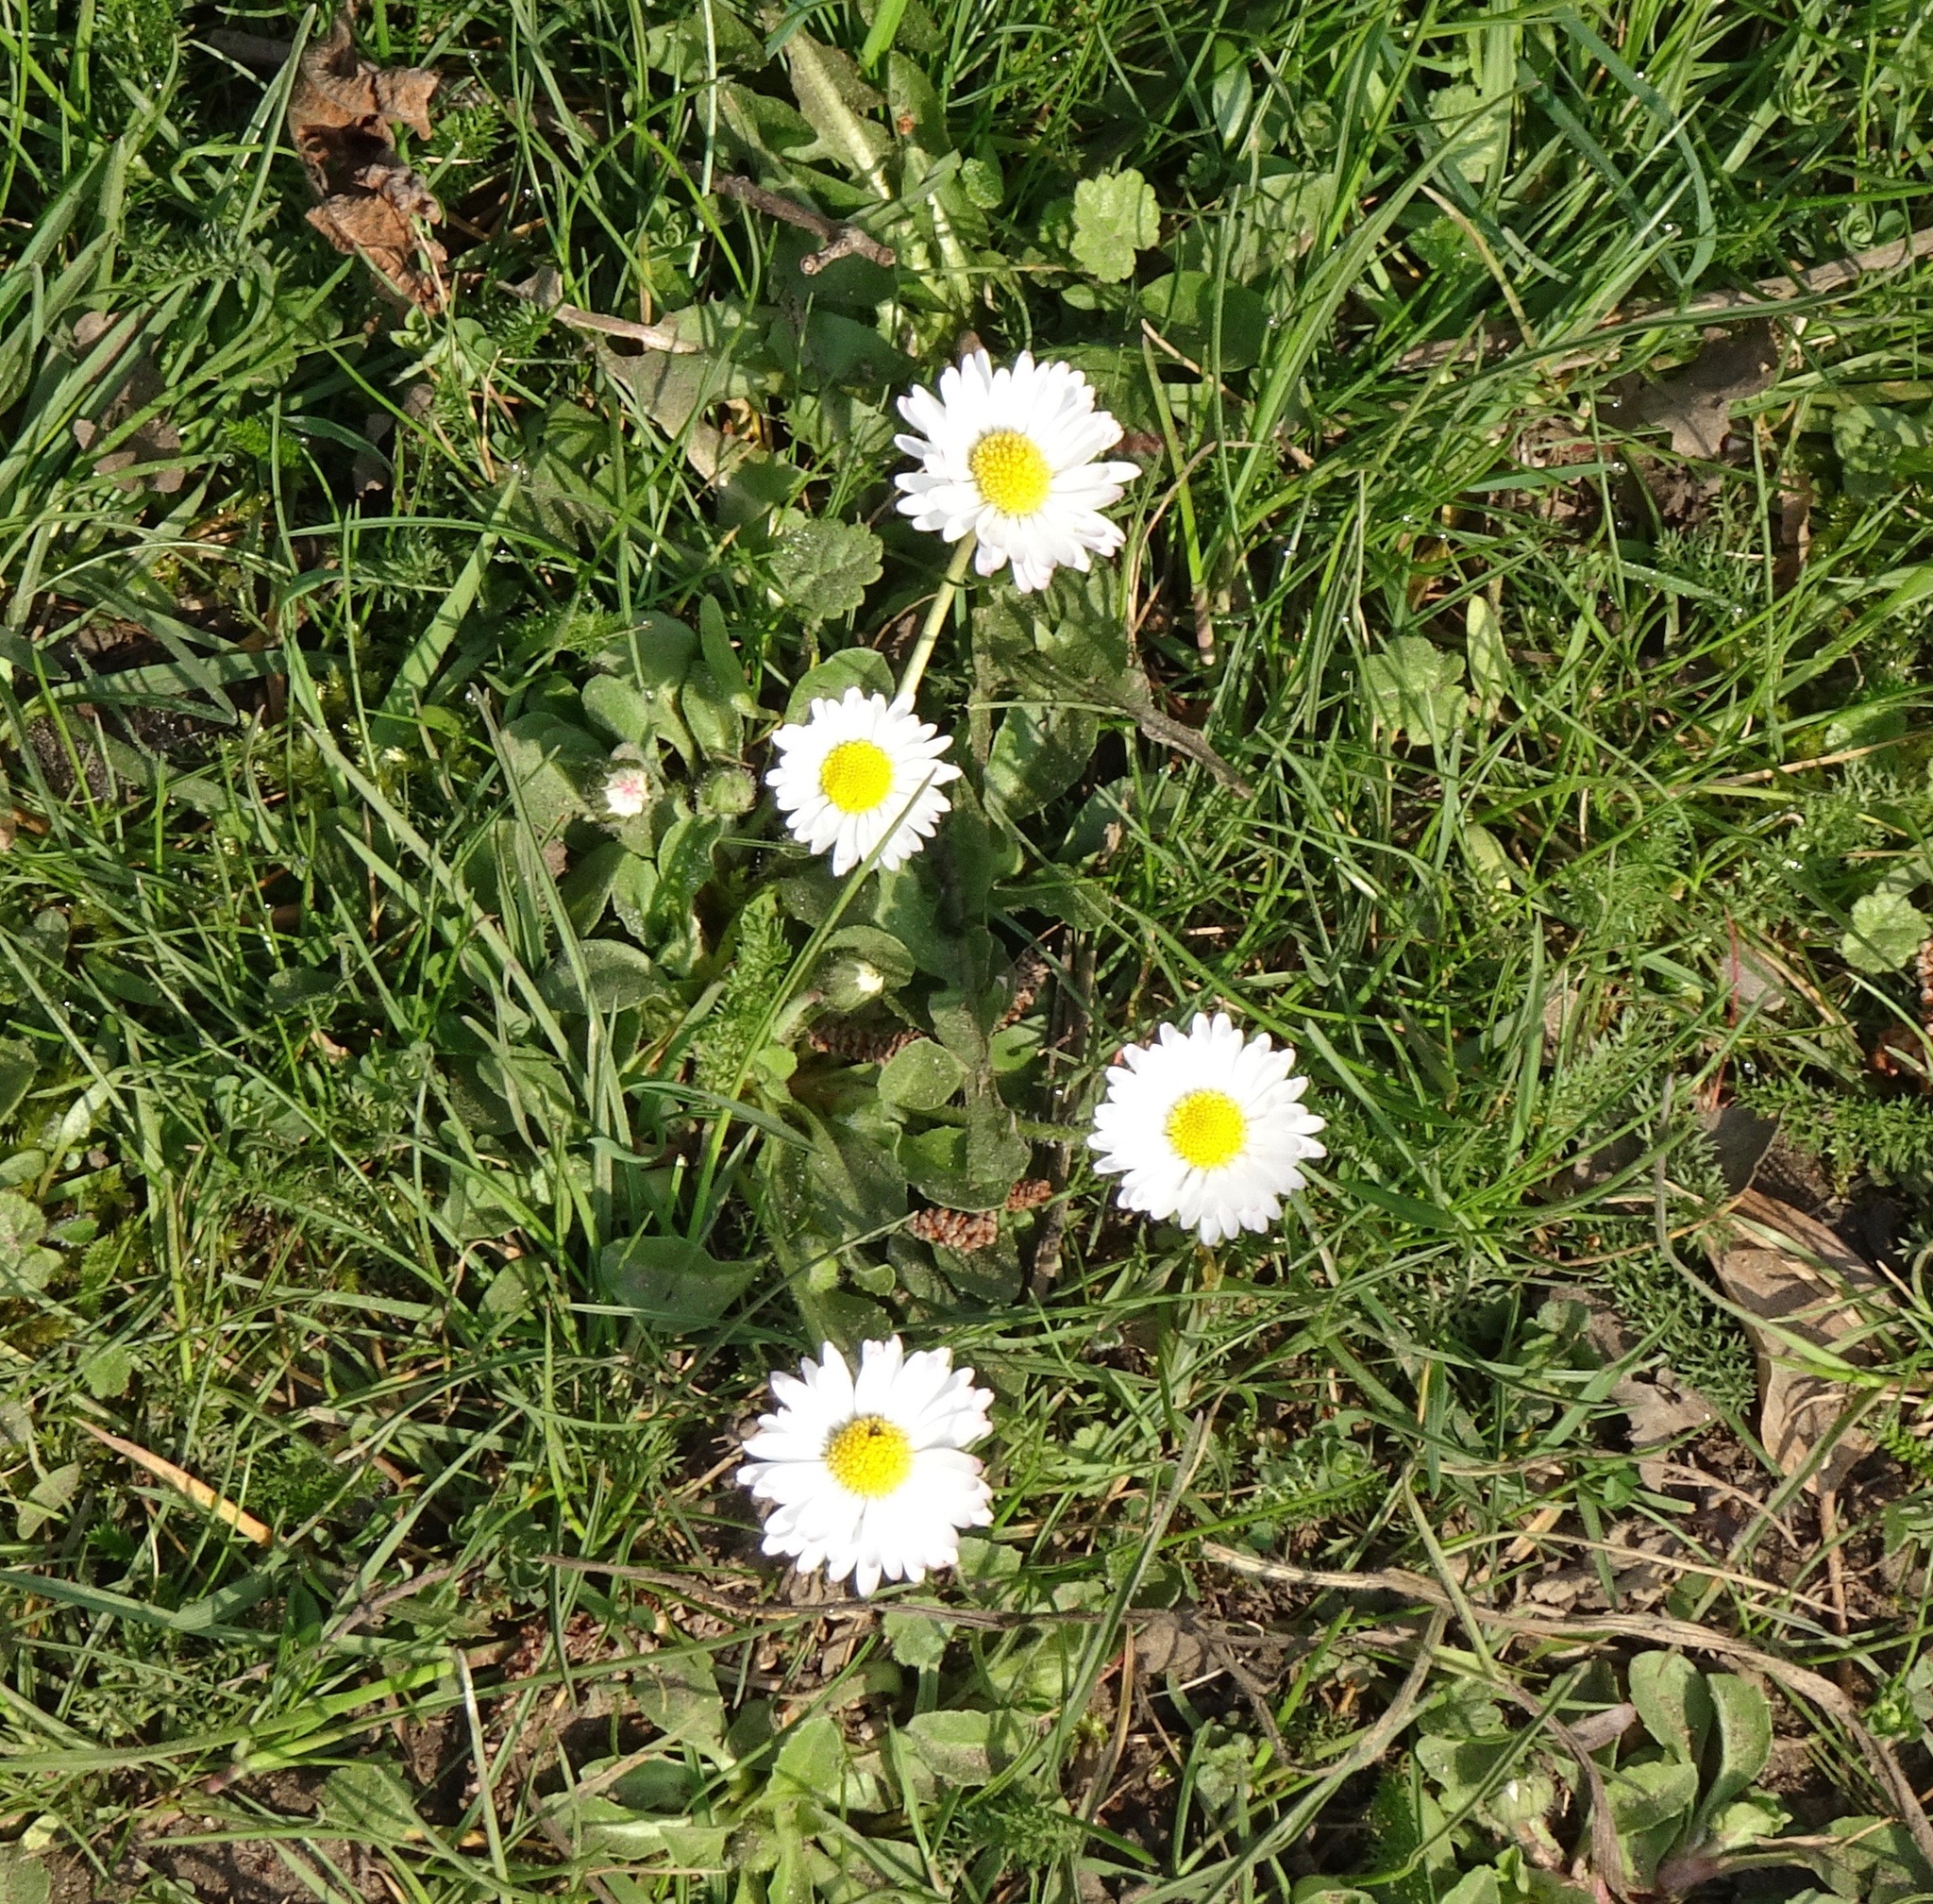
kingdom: Plantae
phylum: Tracheophyta
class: Magnoliopsida
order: Asterales
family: Asteraceae
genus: Bellis
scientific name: Bellis perennis
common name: Lawndaisy
